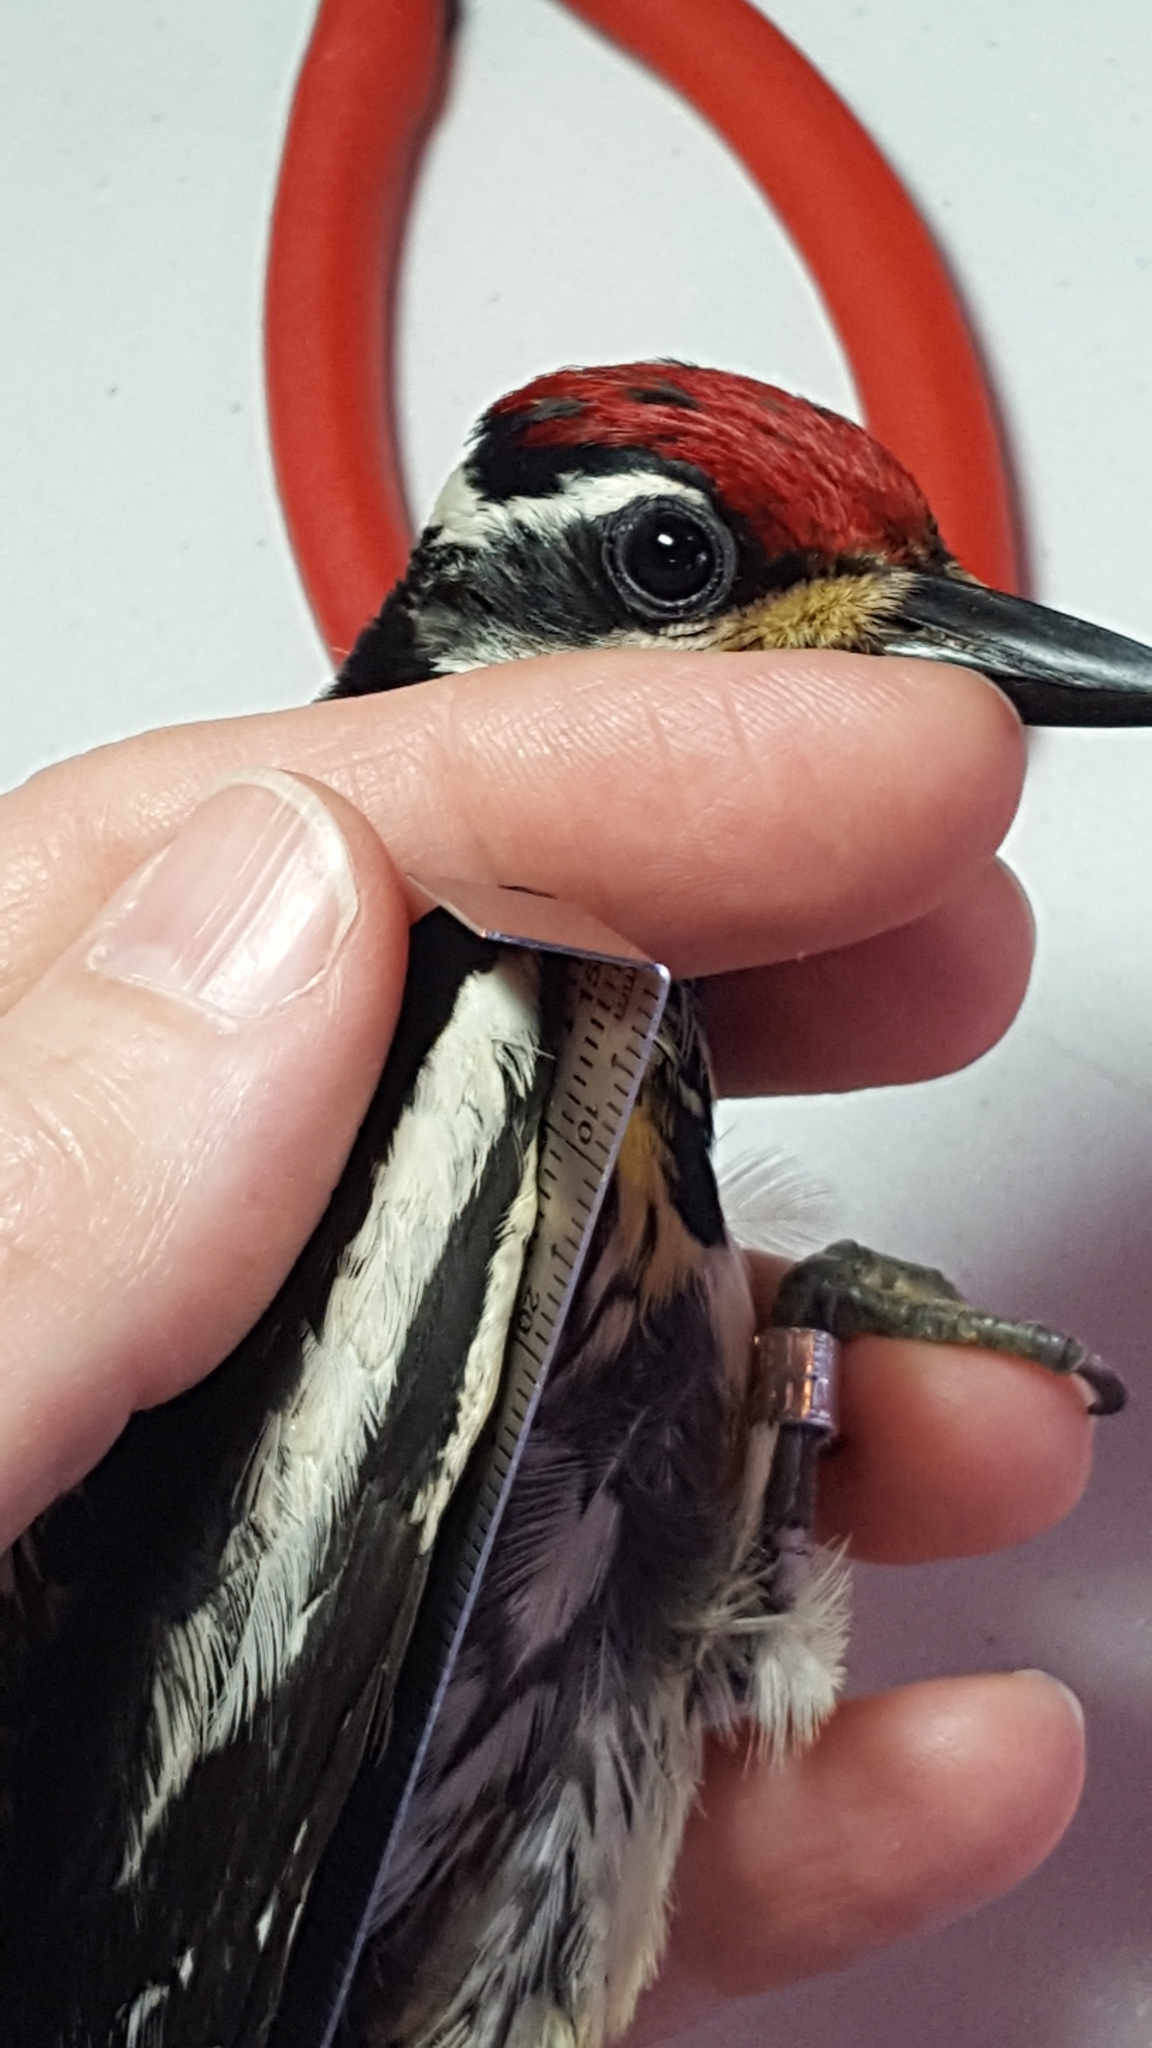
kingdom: Animalia
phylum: Chordata
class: Aves
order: Piciformes
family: Picidae
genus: Sphyrapicus
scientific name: Sphyrapicus varius
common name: Yellow-bellied sapsucker
